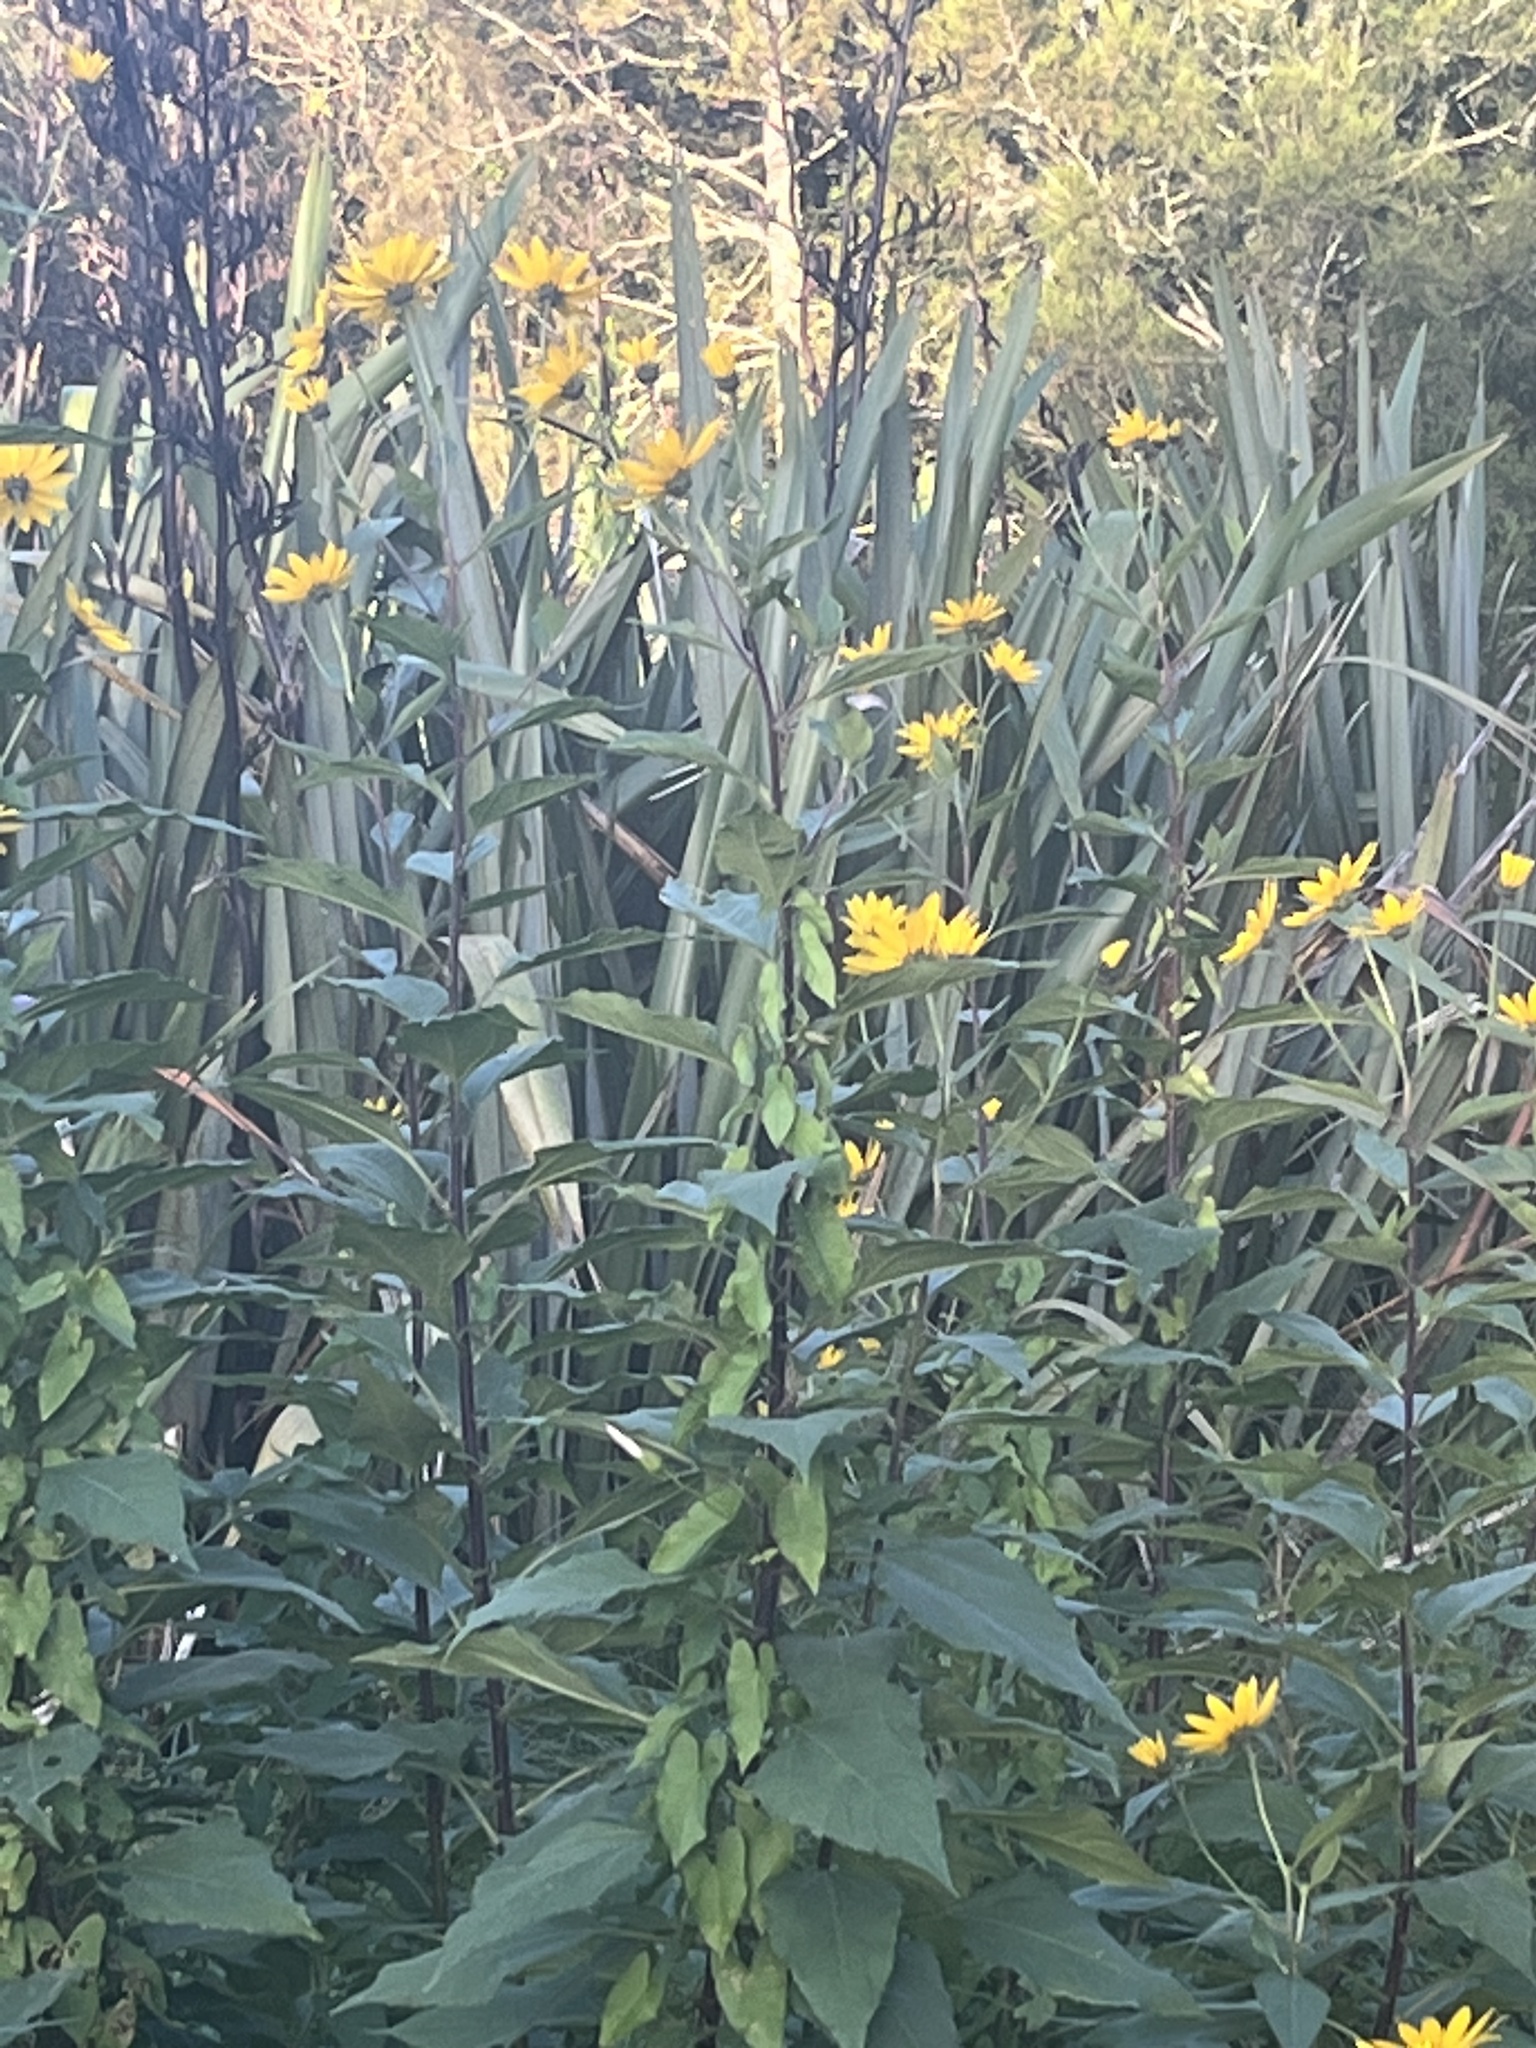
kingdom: Plantae
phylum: Tracheophyta
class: Magnoliopsida
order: Asterales
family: Asteraceae
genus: Helianthus
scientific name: Helianthus tuberosus
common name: Jerusalem artichoke
